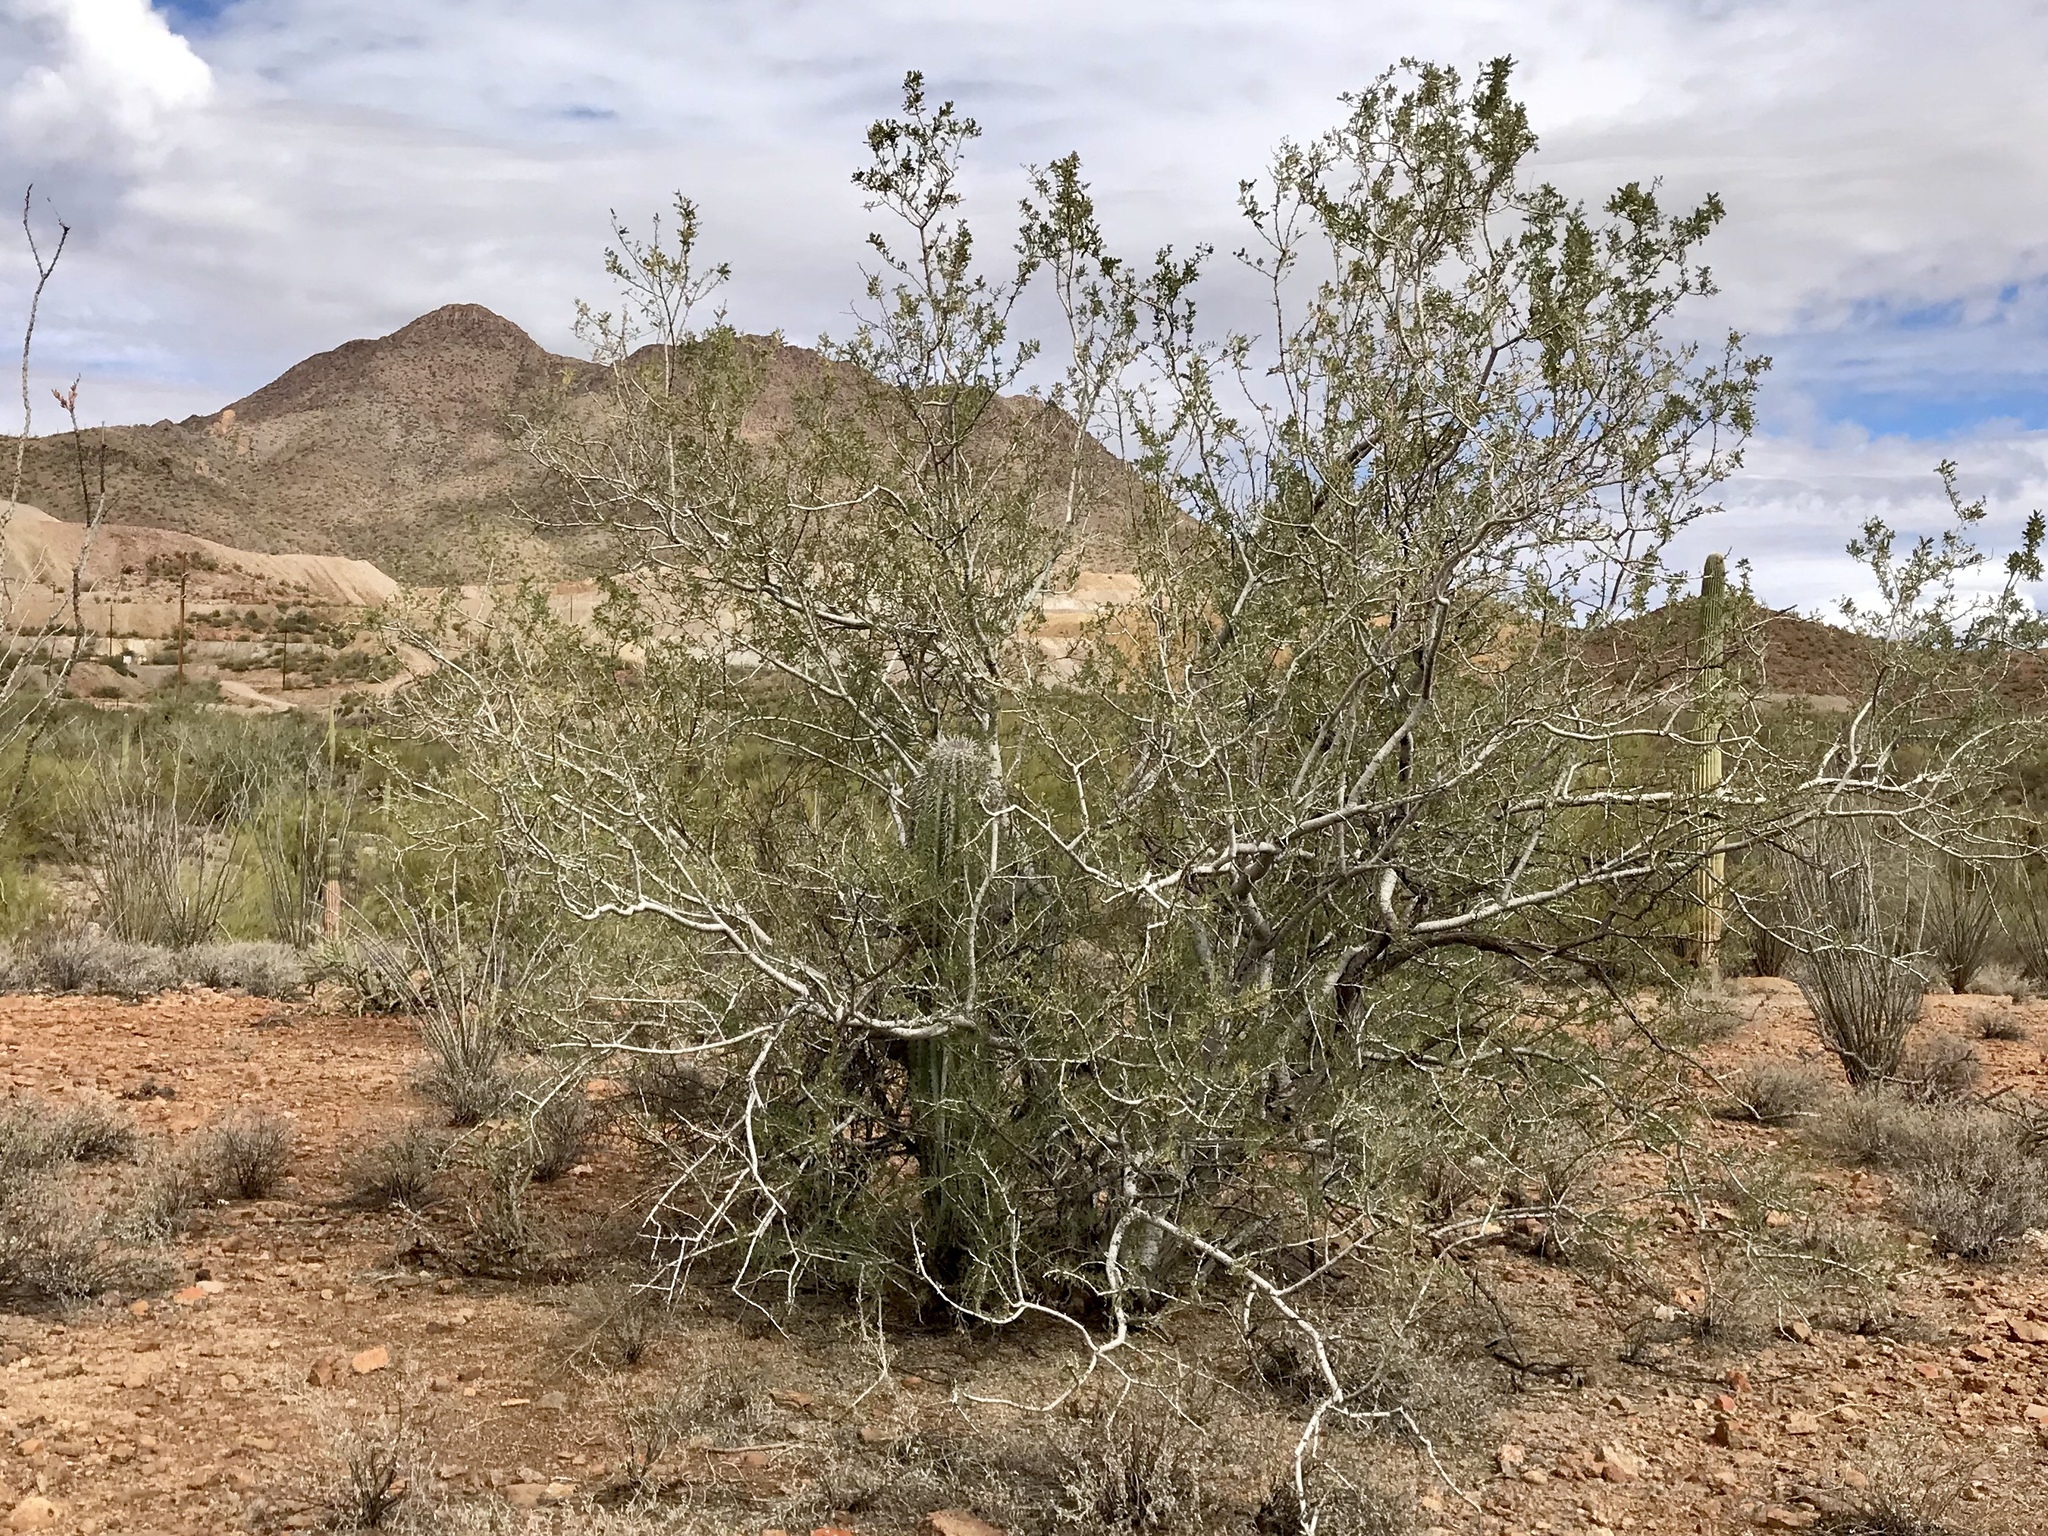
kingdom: Plantae
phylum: Tracheophyta
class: Magnoliopsida
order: Fabales
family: Fabaceae
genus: Olneya
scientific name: Olneya tesota
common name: Desert ironwood
